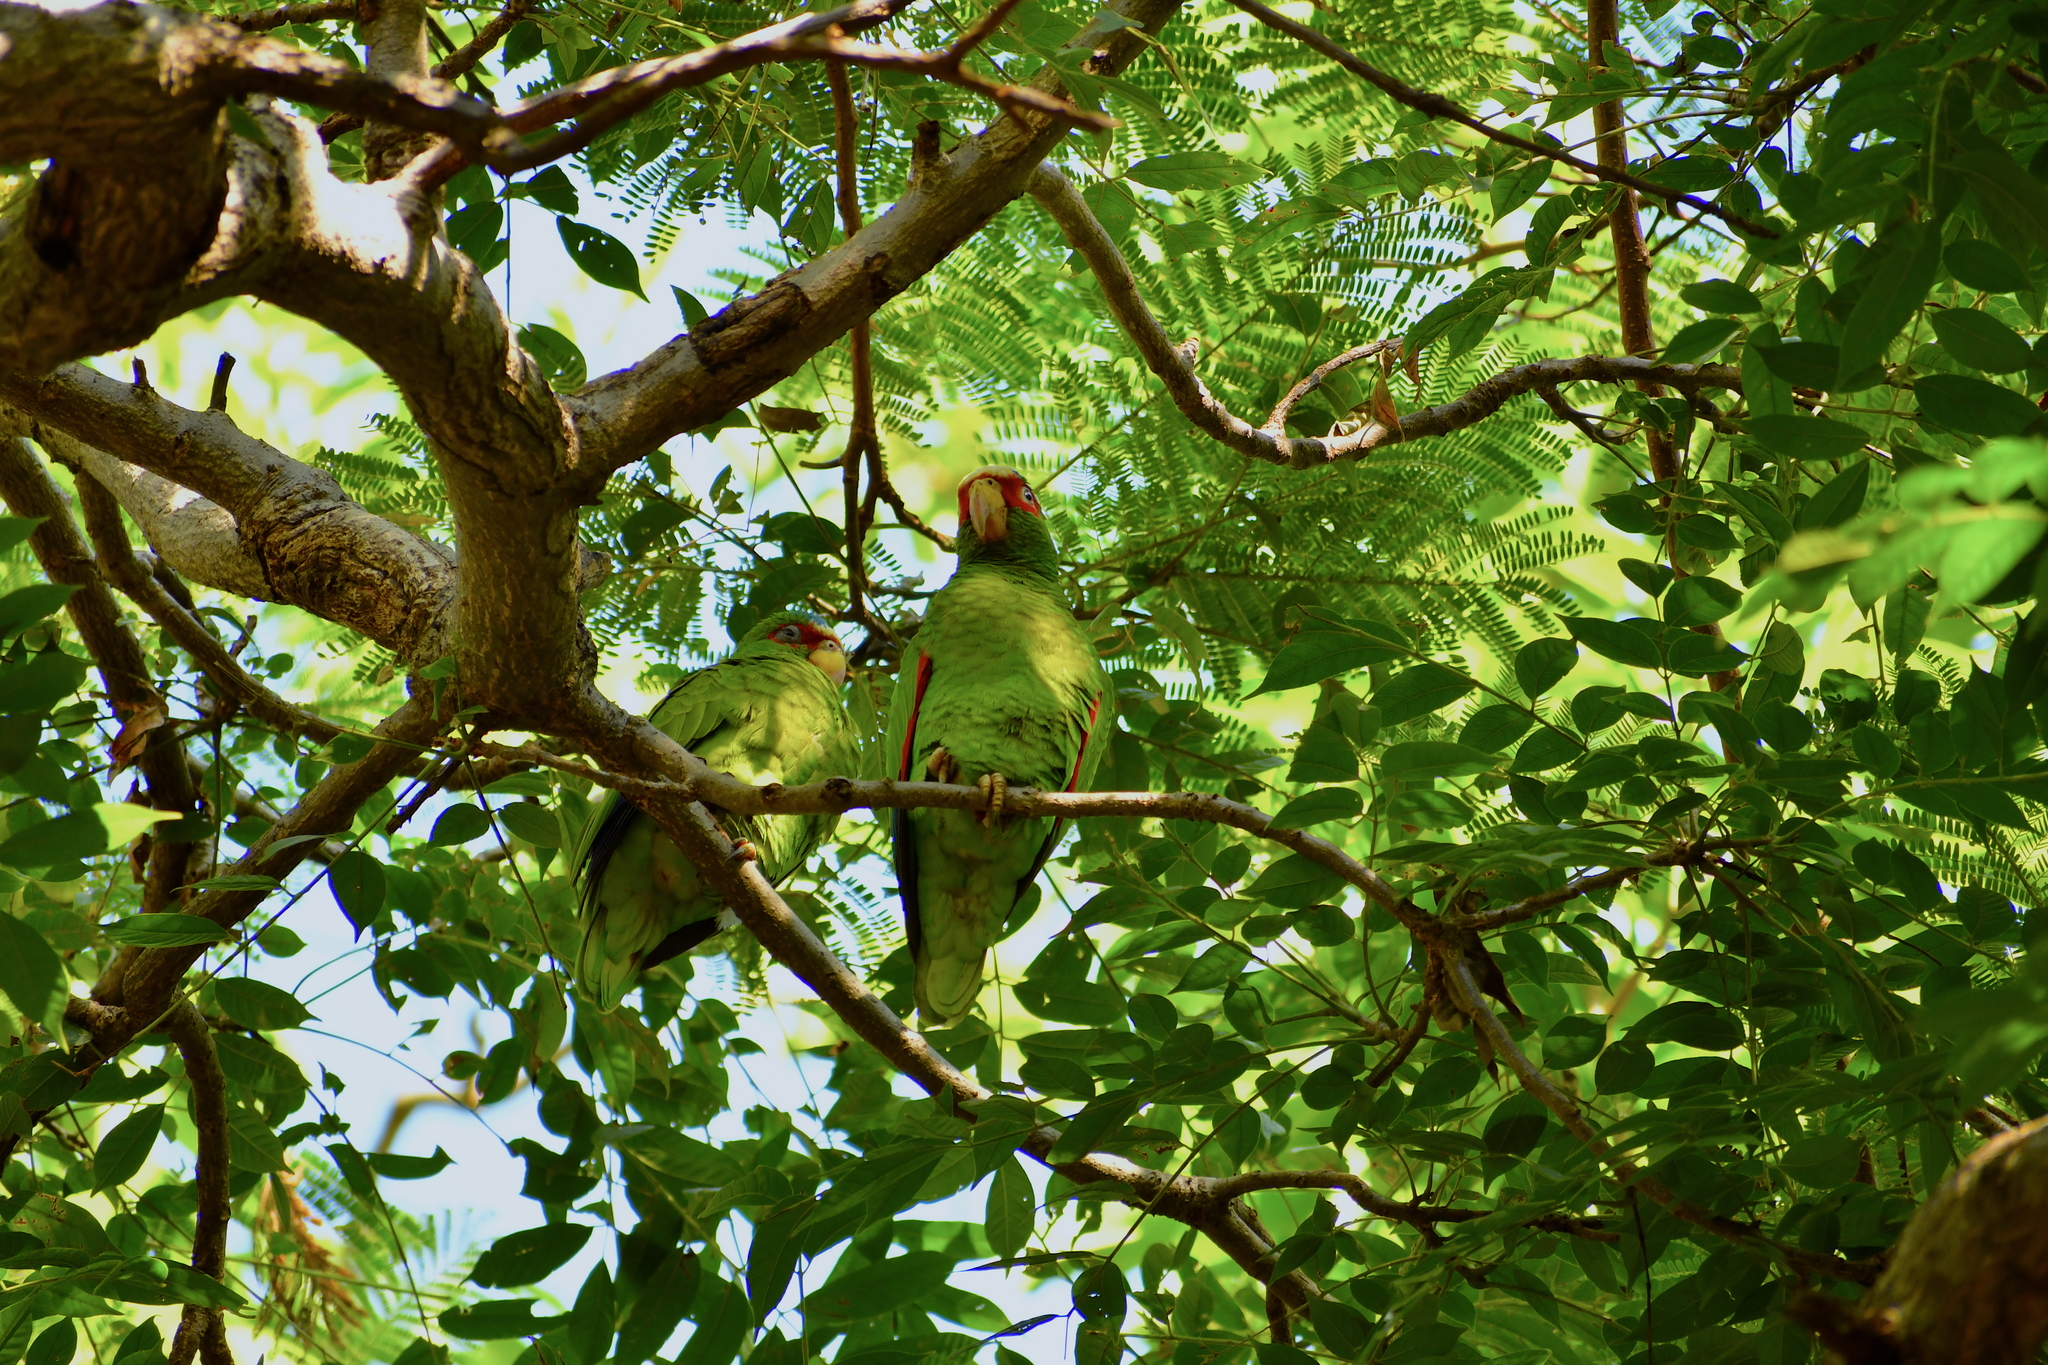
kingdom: Animalia
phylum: Chordata
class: Aves
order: Psittaciformes
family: Psittacidae
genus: Amazona
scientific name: Amazona albifrons
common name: White-fronted amazon
